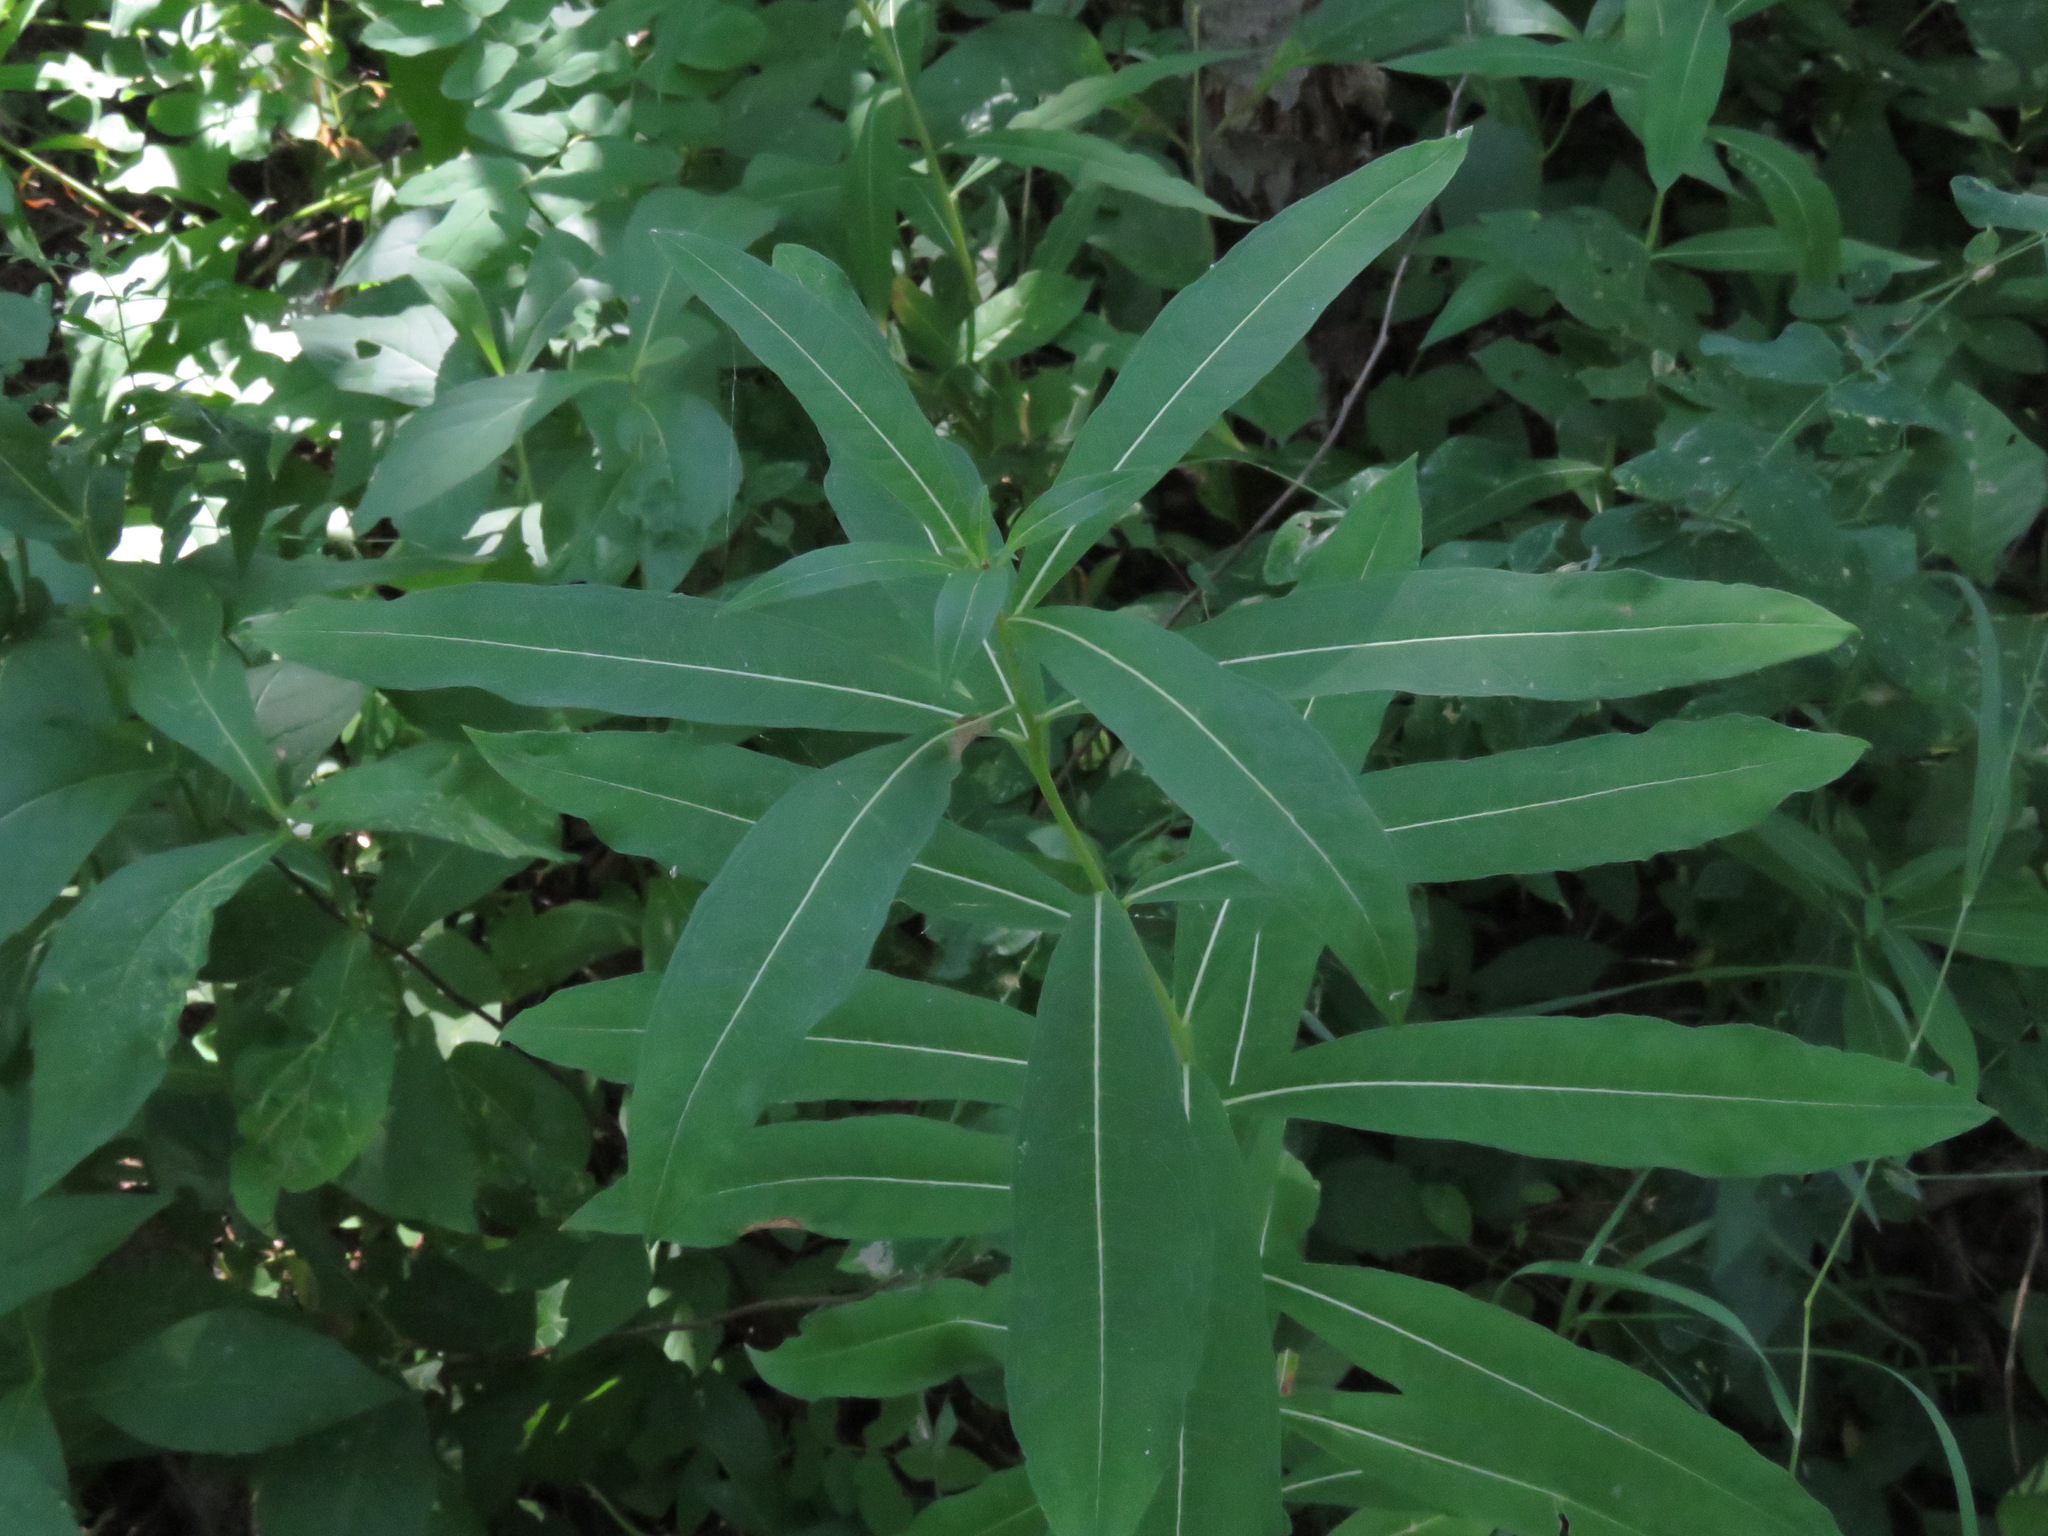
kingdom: Plantae
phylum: Tracheophyta
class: Magnoliopsida
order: Myrtales
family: Onagraceae
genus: Chamaenerion
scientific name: Chamaenerion angustifolium
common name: Fireweed
